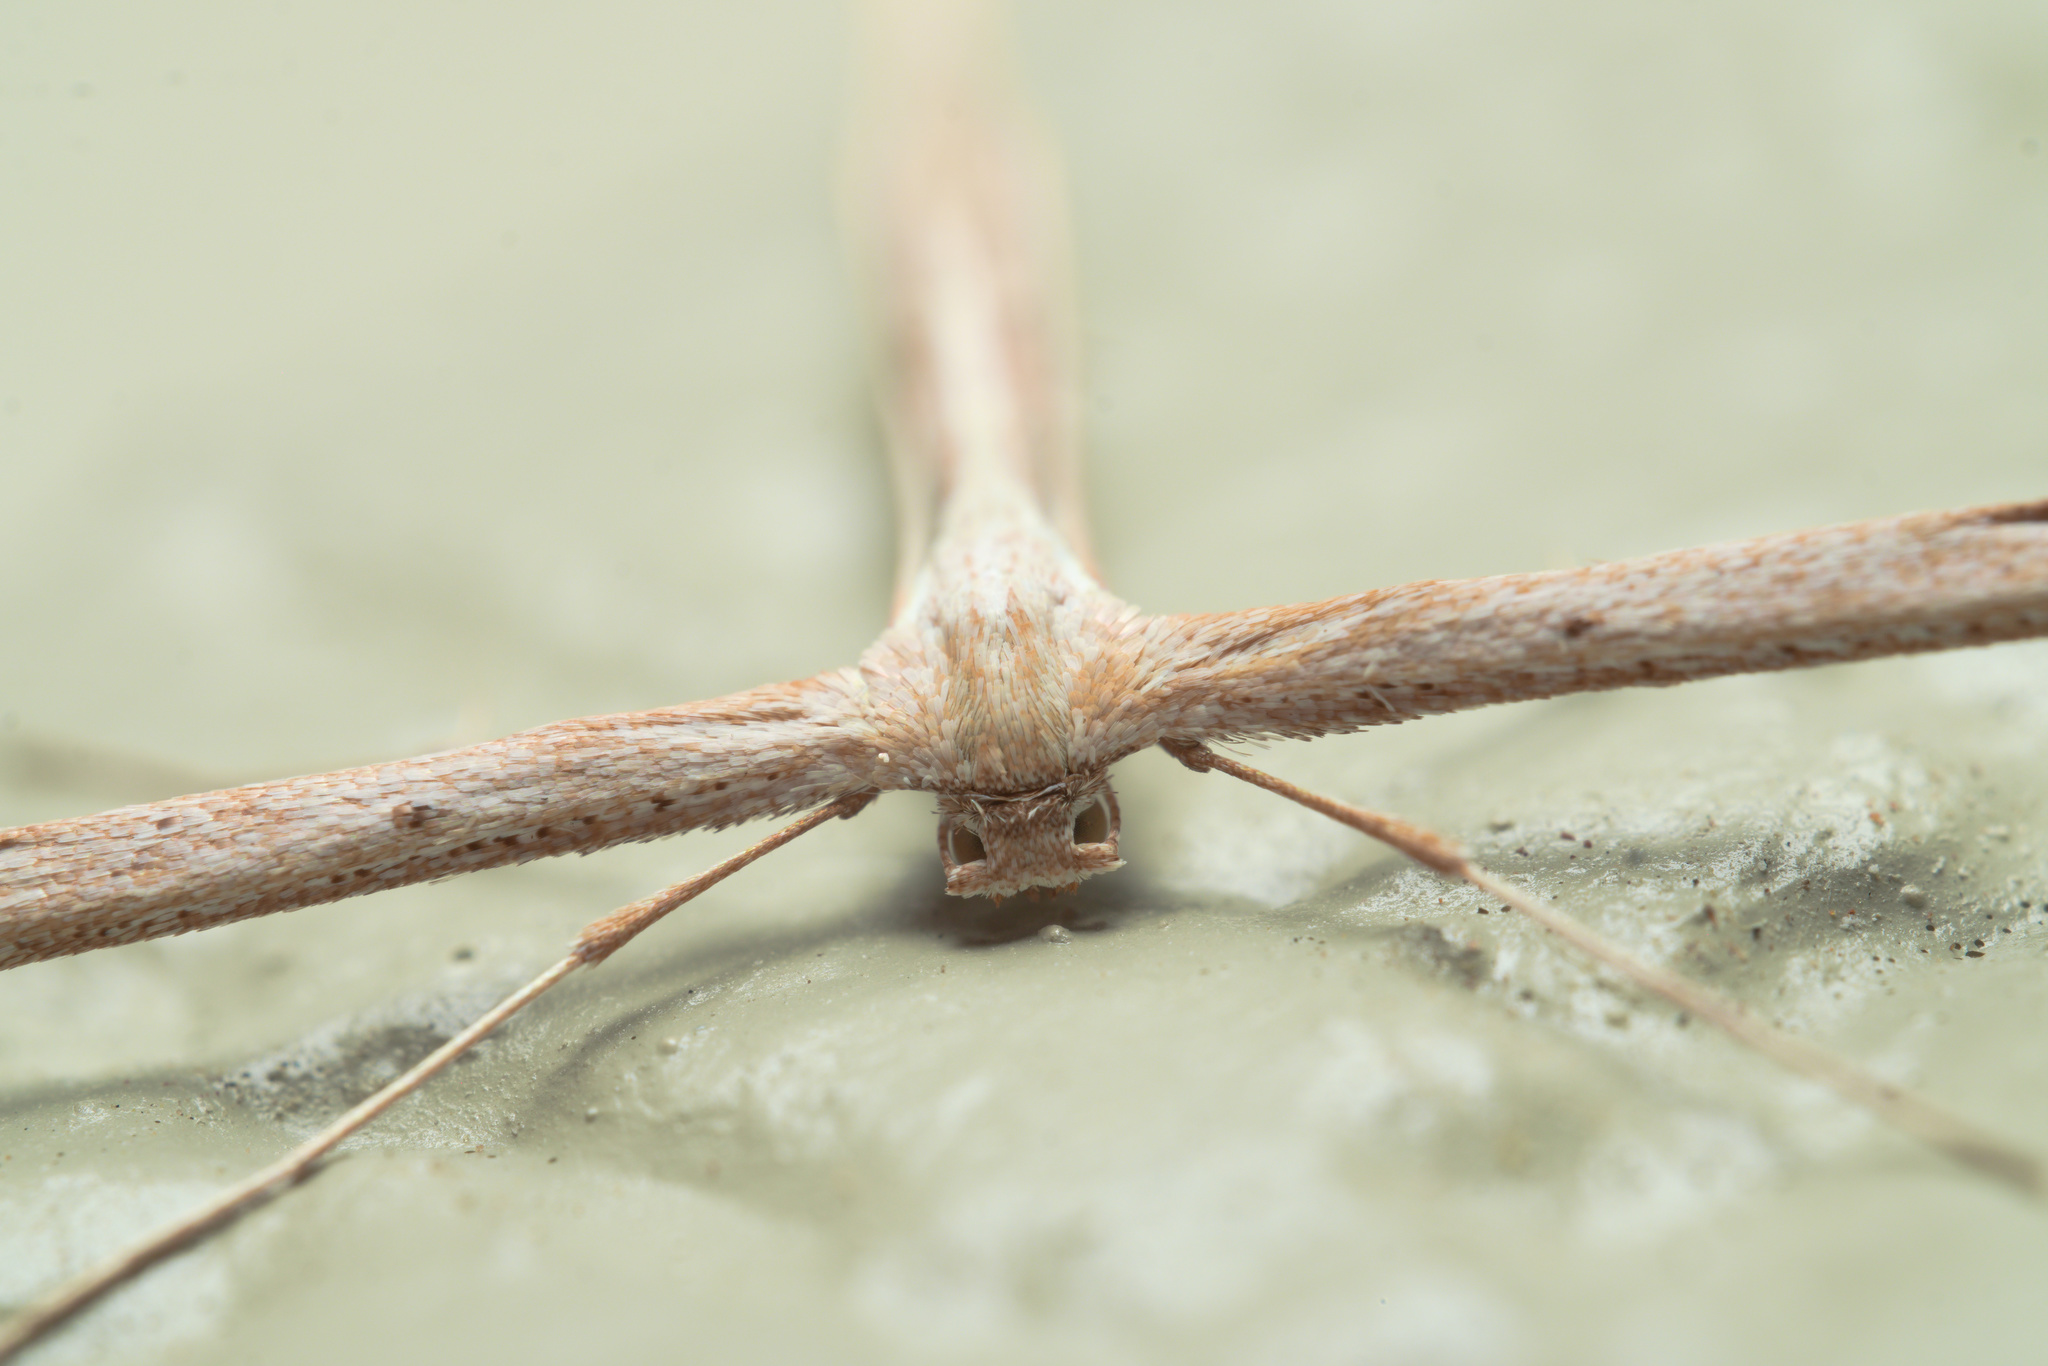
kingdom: Animalia
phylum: Arthropoda
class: Insecta
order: Lepidoptera
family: Pterophoridae
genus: Emmelina
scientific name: Emmelina monodactyla
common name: Common plume
